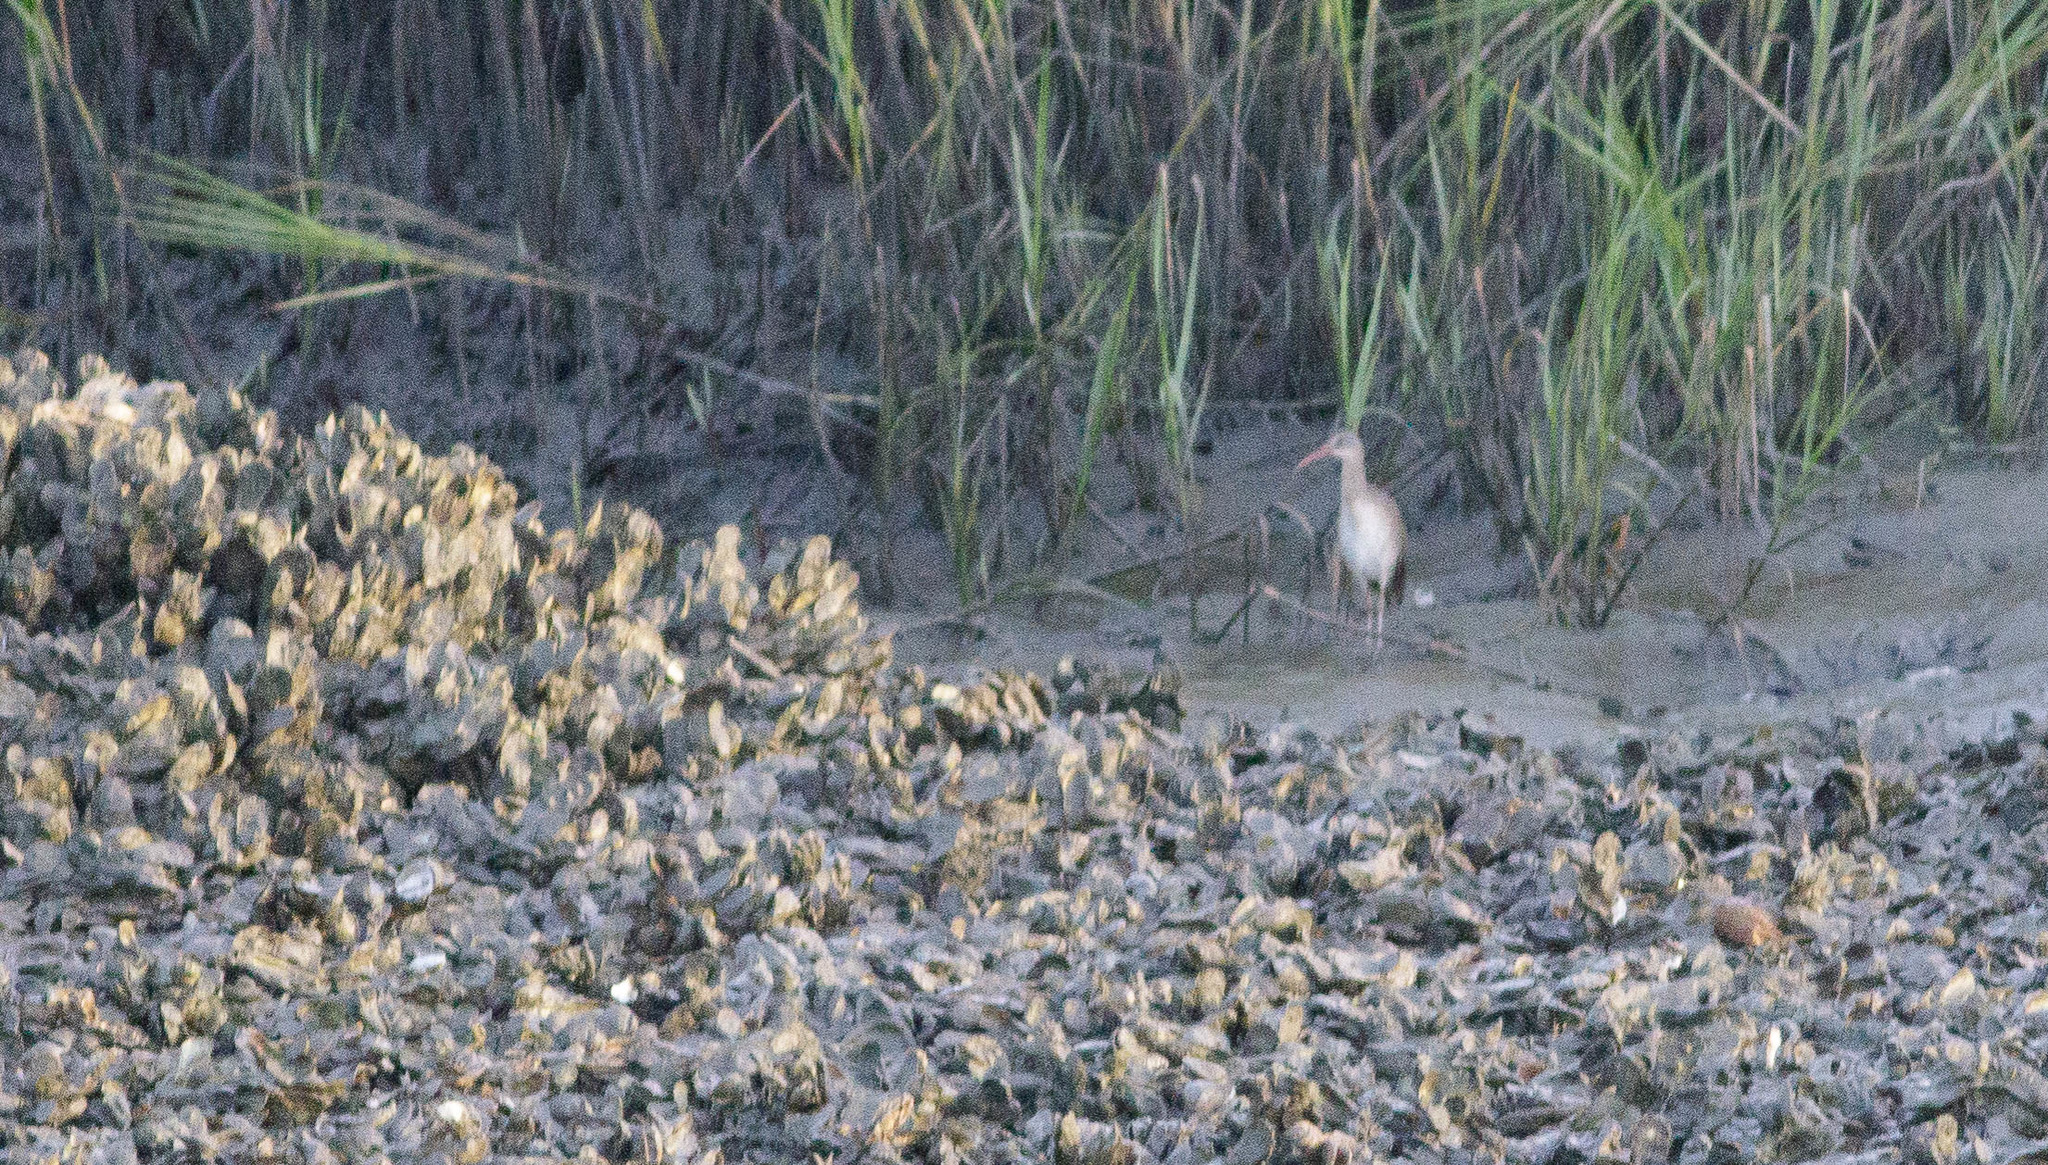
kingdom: Animalia
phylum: Chordata
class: Aves
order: Gruiformes
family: Rallidae
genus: Rallus
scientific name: Rallus crepitans
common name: Clapper rail
